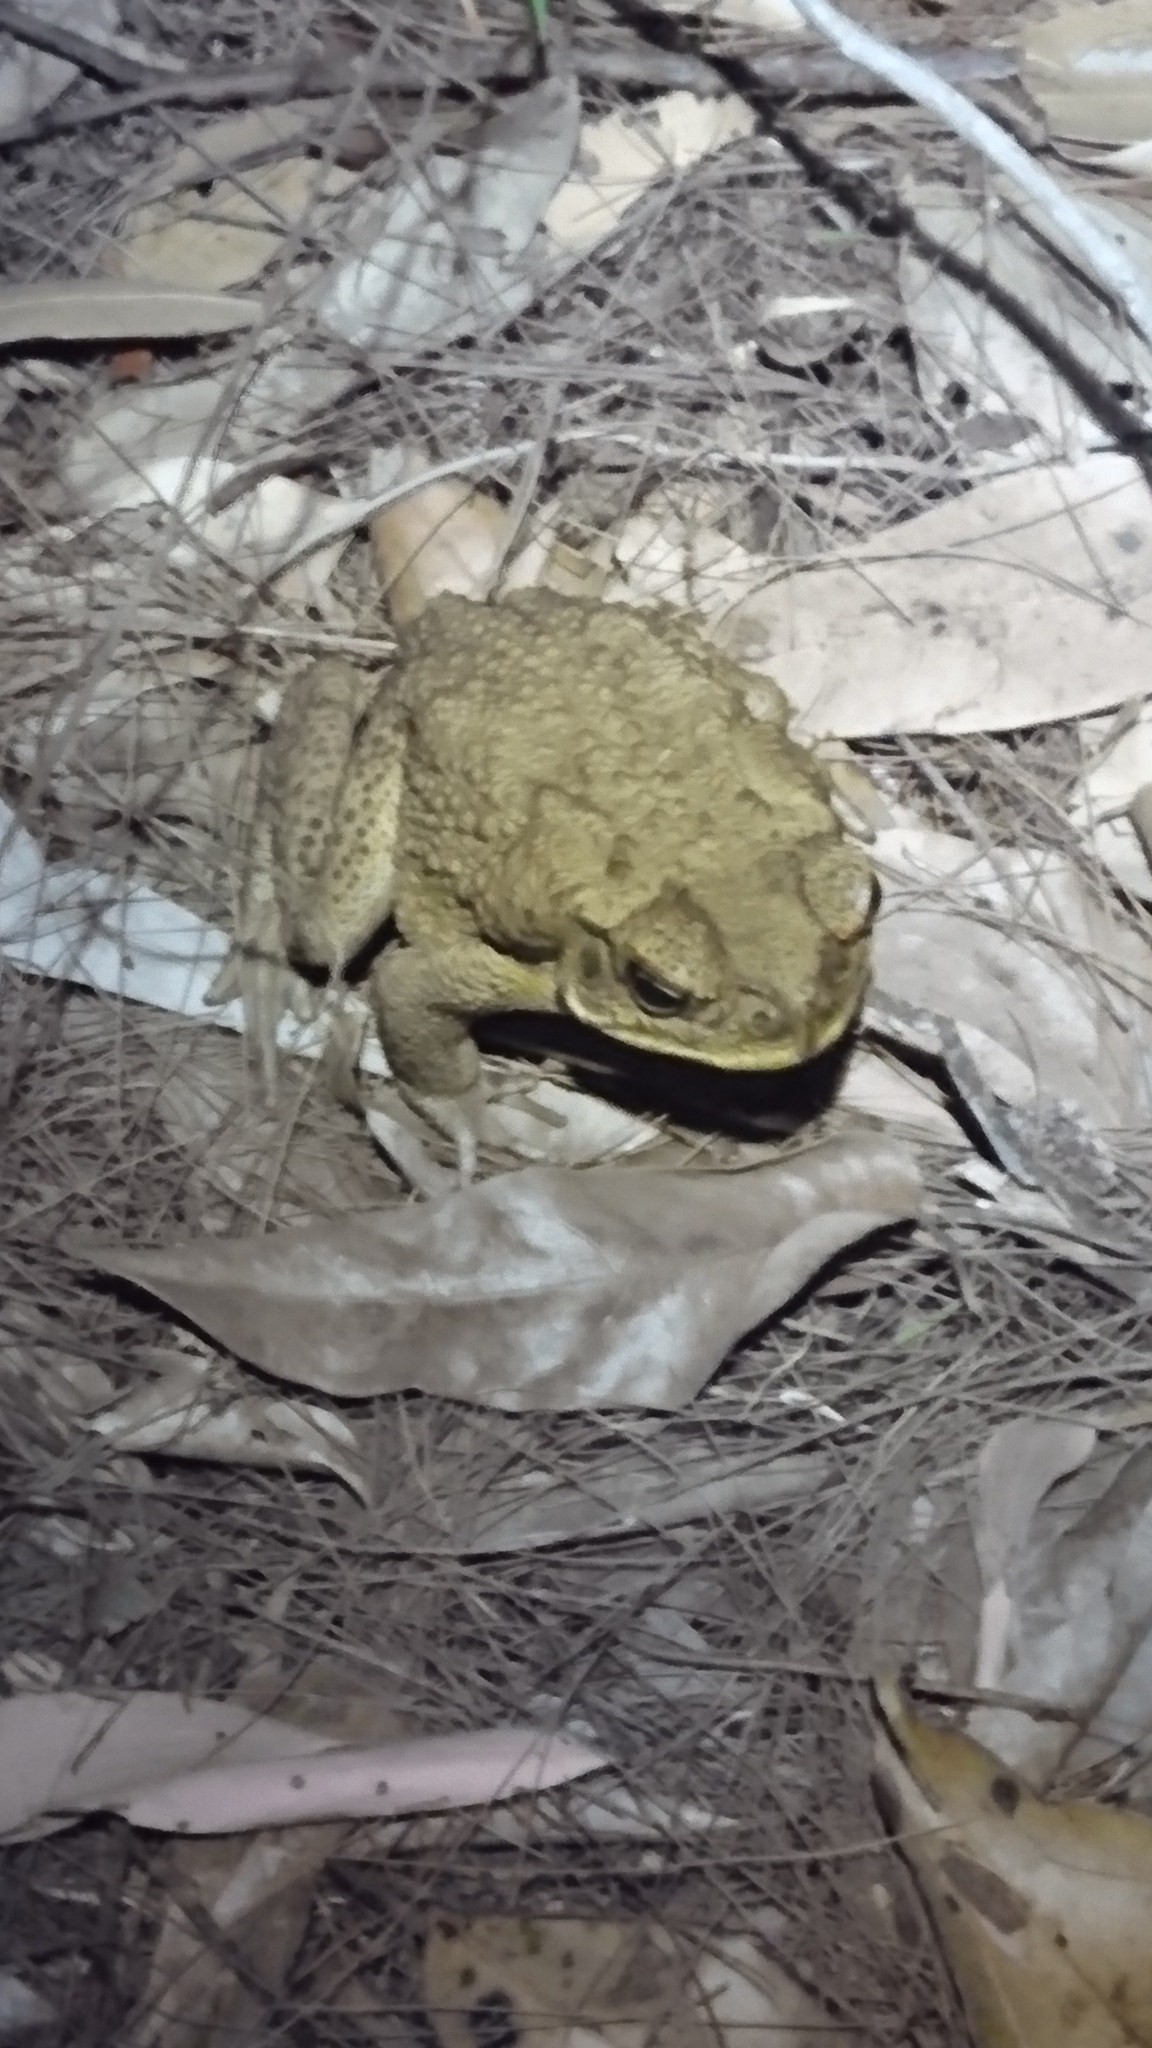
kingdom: Animalia
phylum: Chordata
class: Amphibia
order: Anura
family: Bufonidae
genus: Rhinella
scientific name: Rhinella marina
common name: Cane toad
